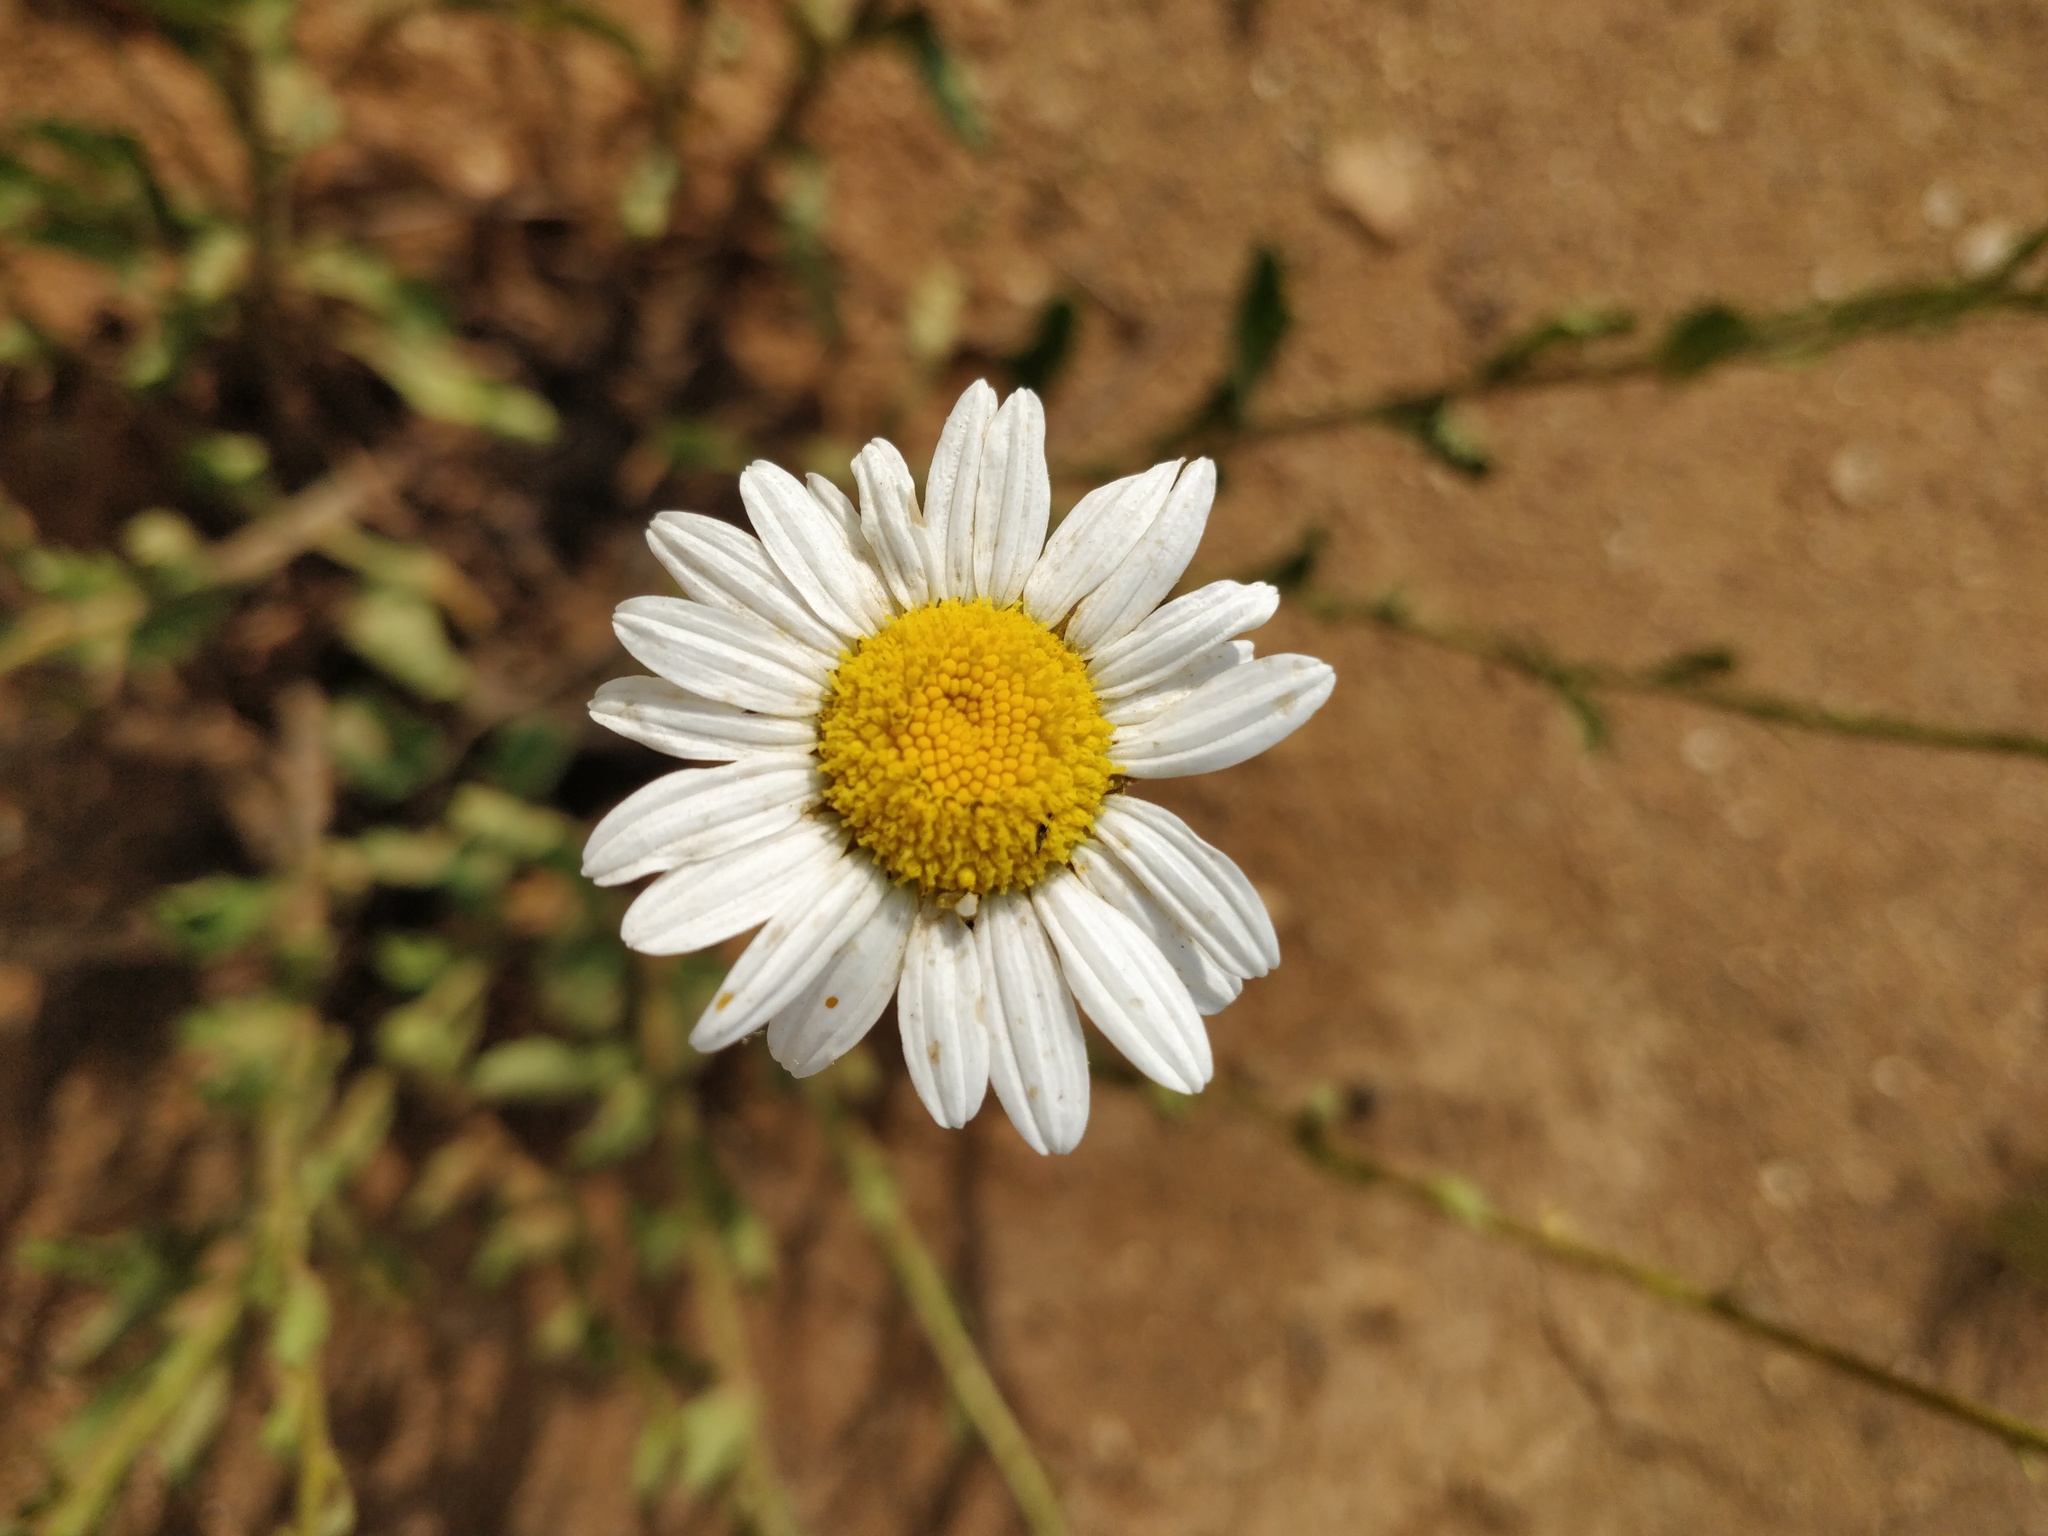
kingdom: Plantae
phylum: Tracheophyta
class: Magnoliopsida
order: Asterales
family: Asteraceae
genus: Leucanthemum
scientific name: Leucanthemum vulgare
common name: Oxeye daisy
